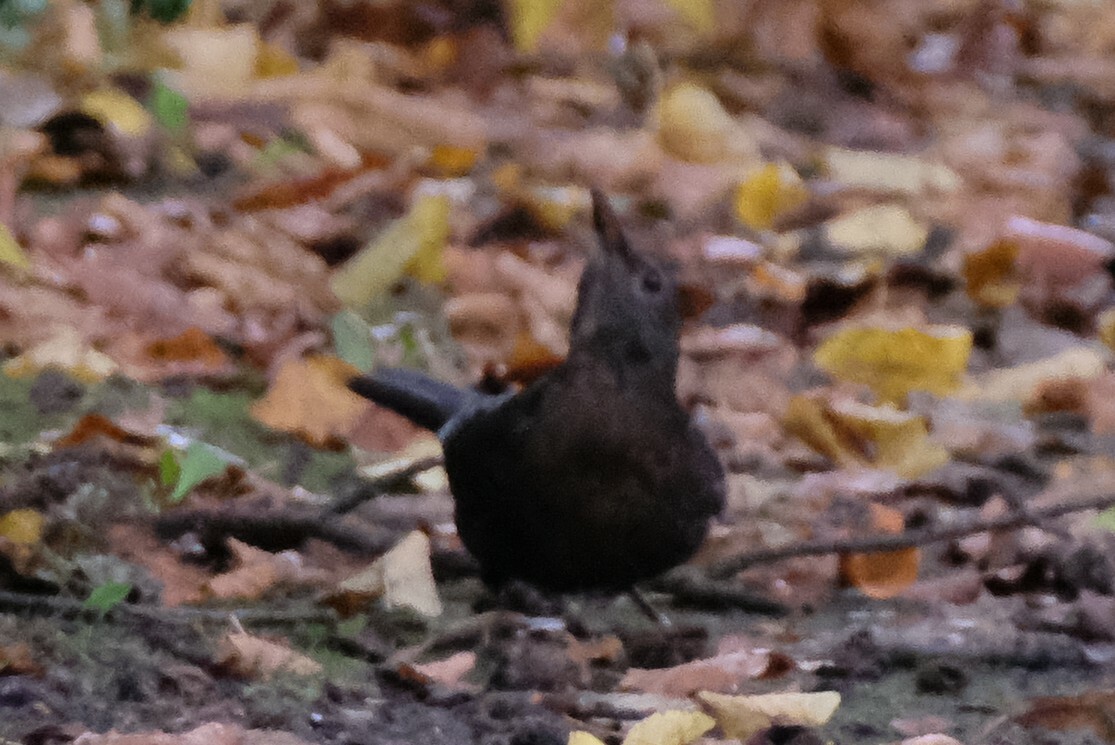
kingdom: Animalia
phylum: Chordata
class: Aves
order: Passeriformes
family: Turdidae
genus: Turdus
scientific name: Turdus merula
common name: Common blackbird
